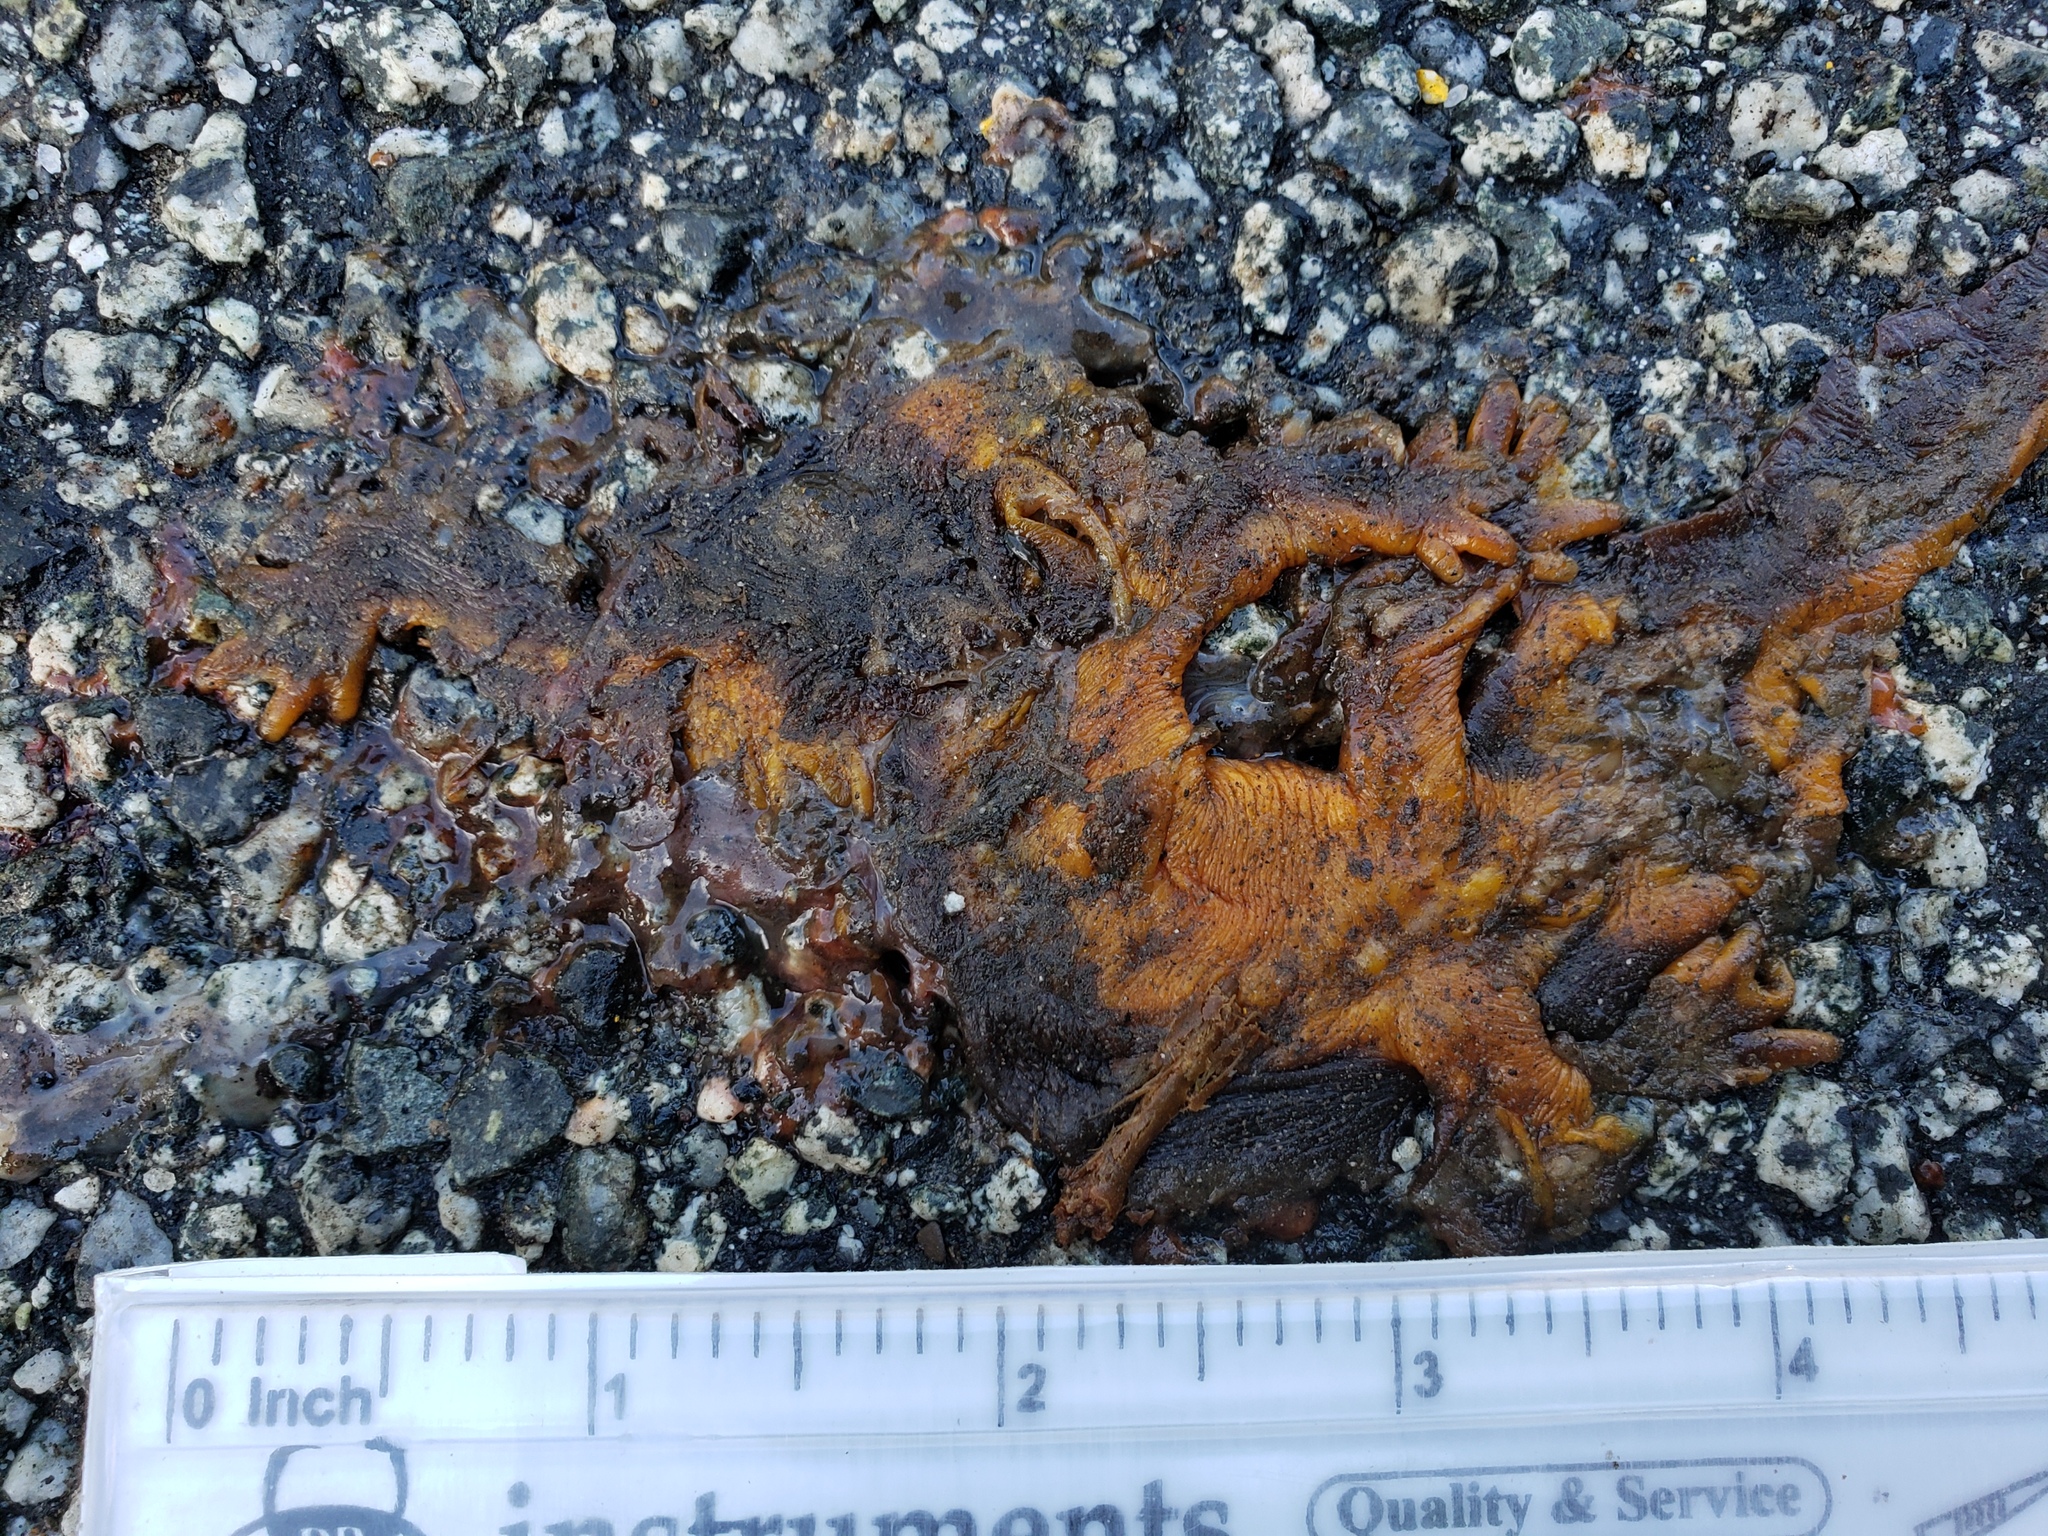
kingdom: Animalia
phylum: Chordata
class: Amphibia
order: Caudata
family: Salamandridae
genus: Taricha
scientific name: Taricha
